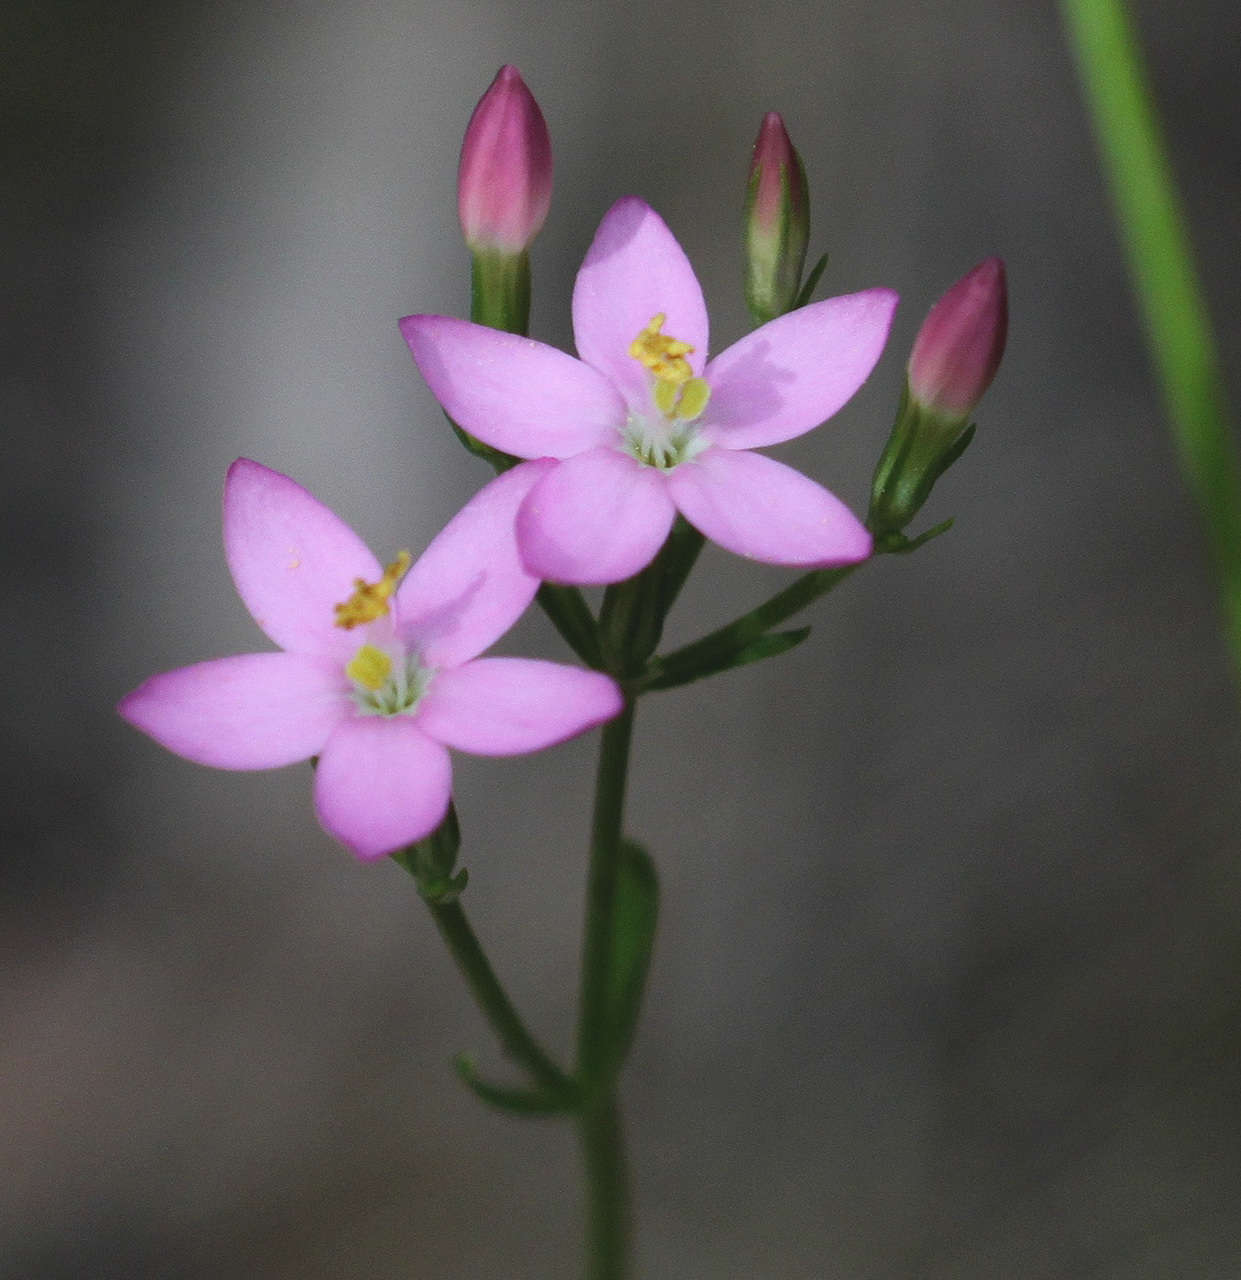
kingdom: Plantae
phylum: Tracheophyta
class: Magnoliopsida
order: Gentianales
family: Gentianaceae
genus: Centaurium
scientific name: Centaurium erythraea
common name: Common centaury
